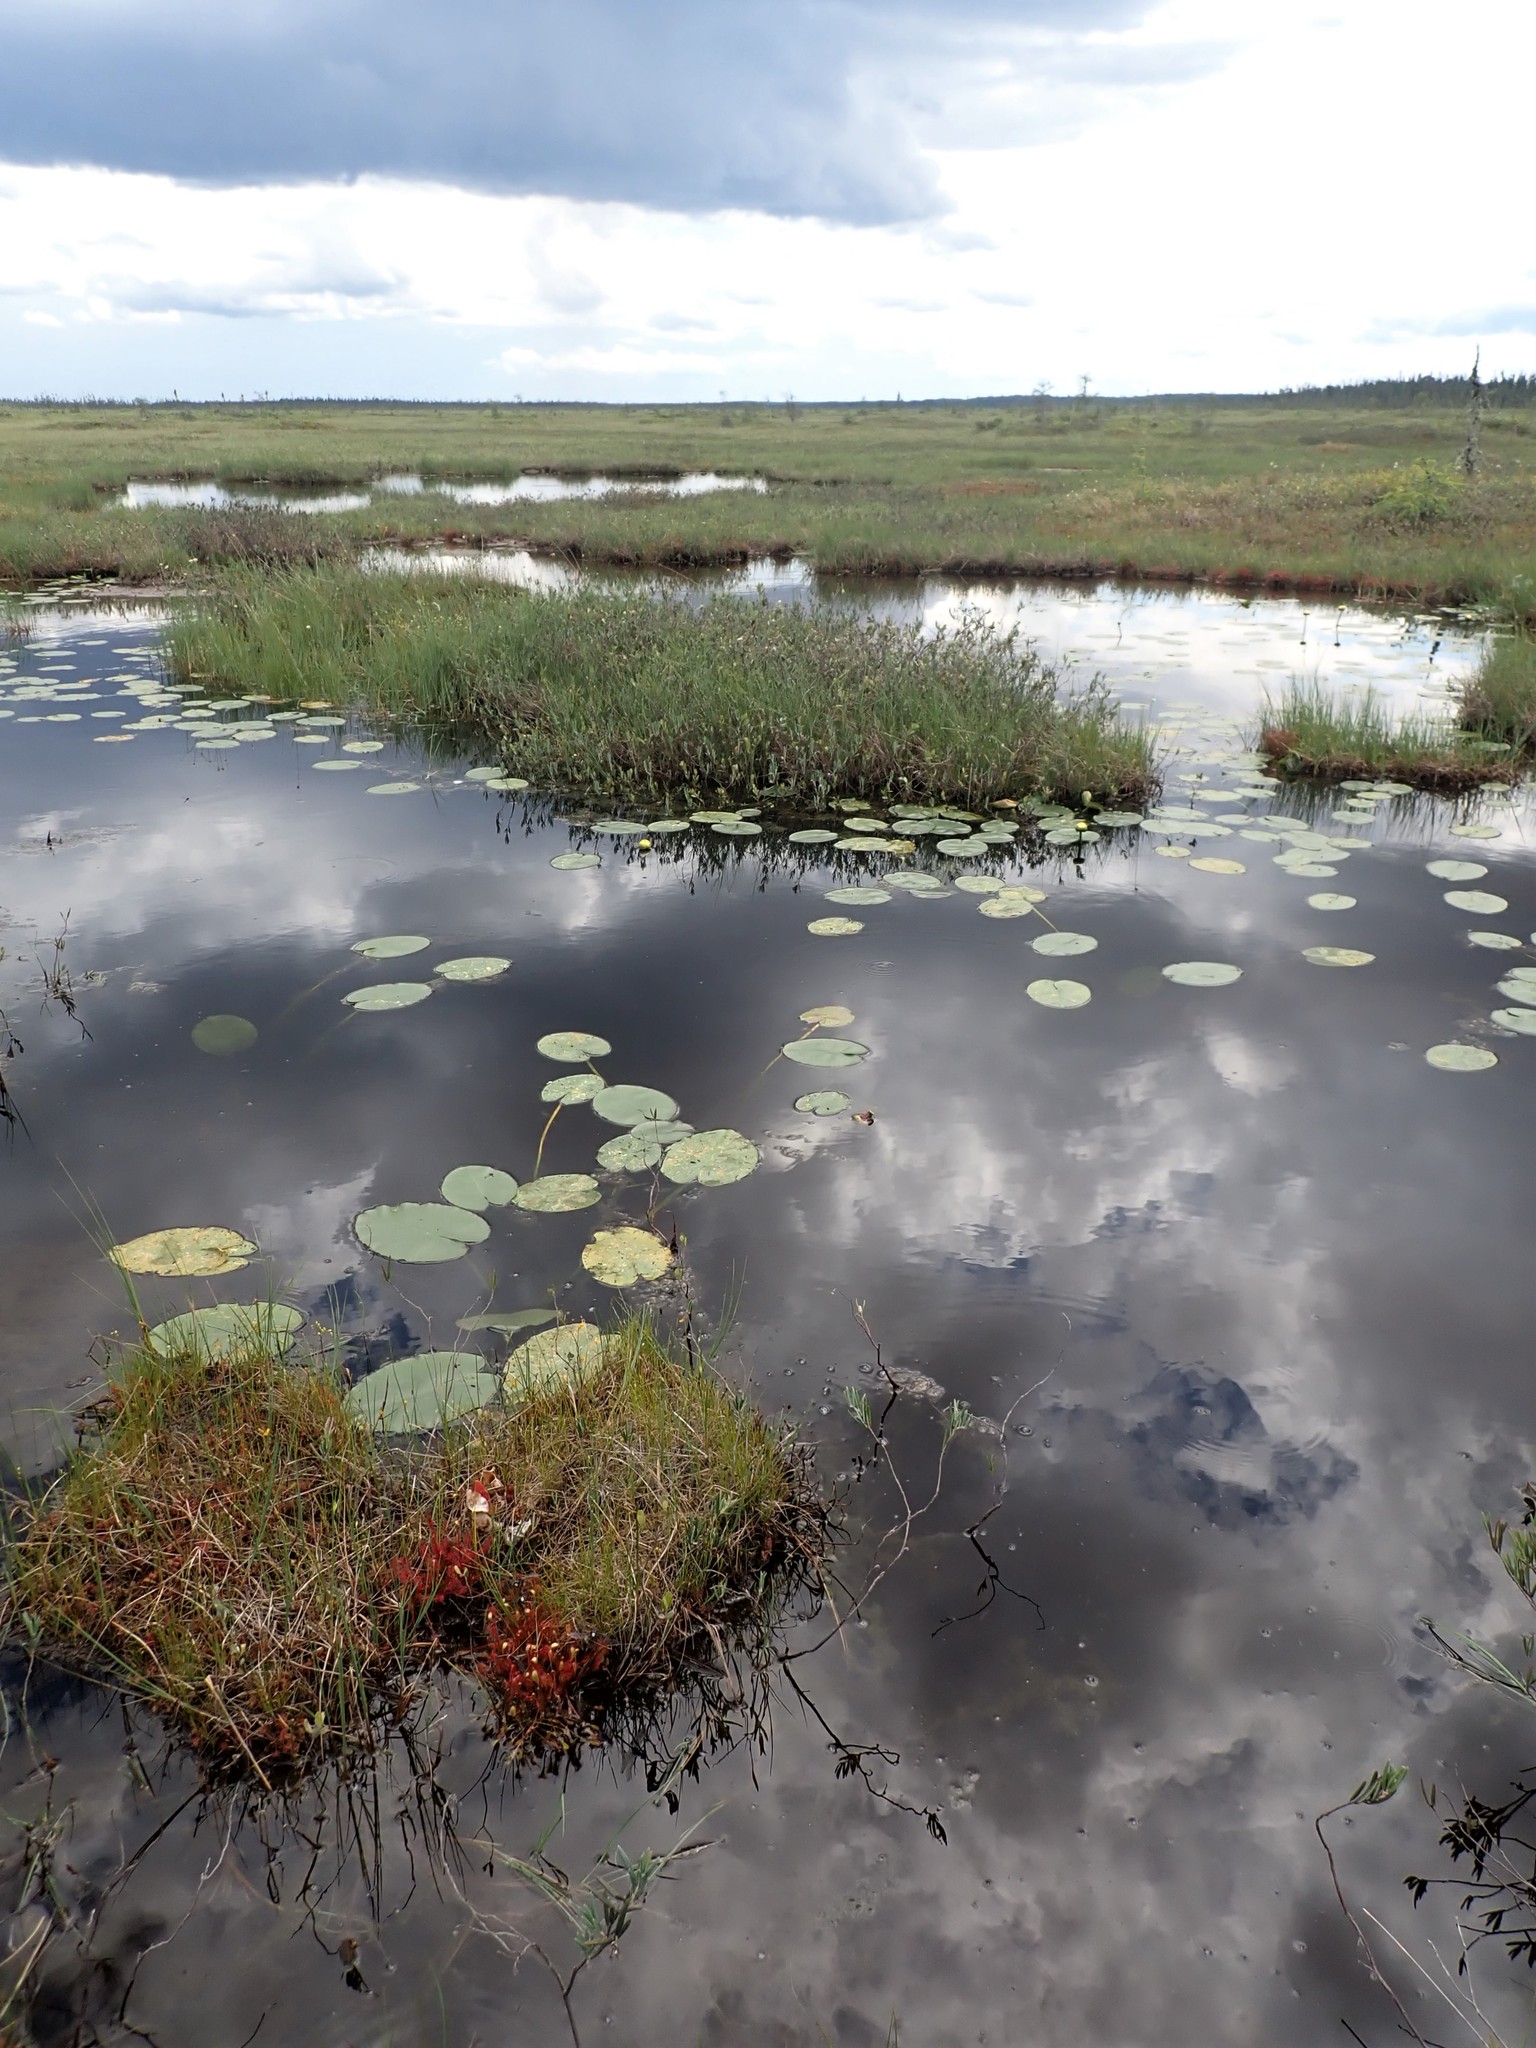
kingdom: Plantae
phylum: Tracheophyta
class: Magnoliopsida
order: Caryophyllales
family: Droseraceae
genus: Drosera
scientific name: Drosera anglica
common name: Great sundew
